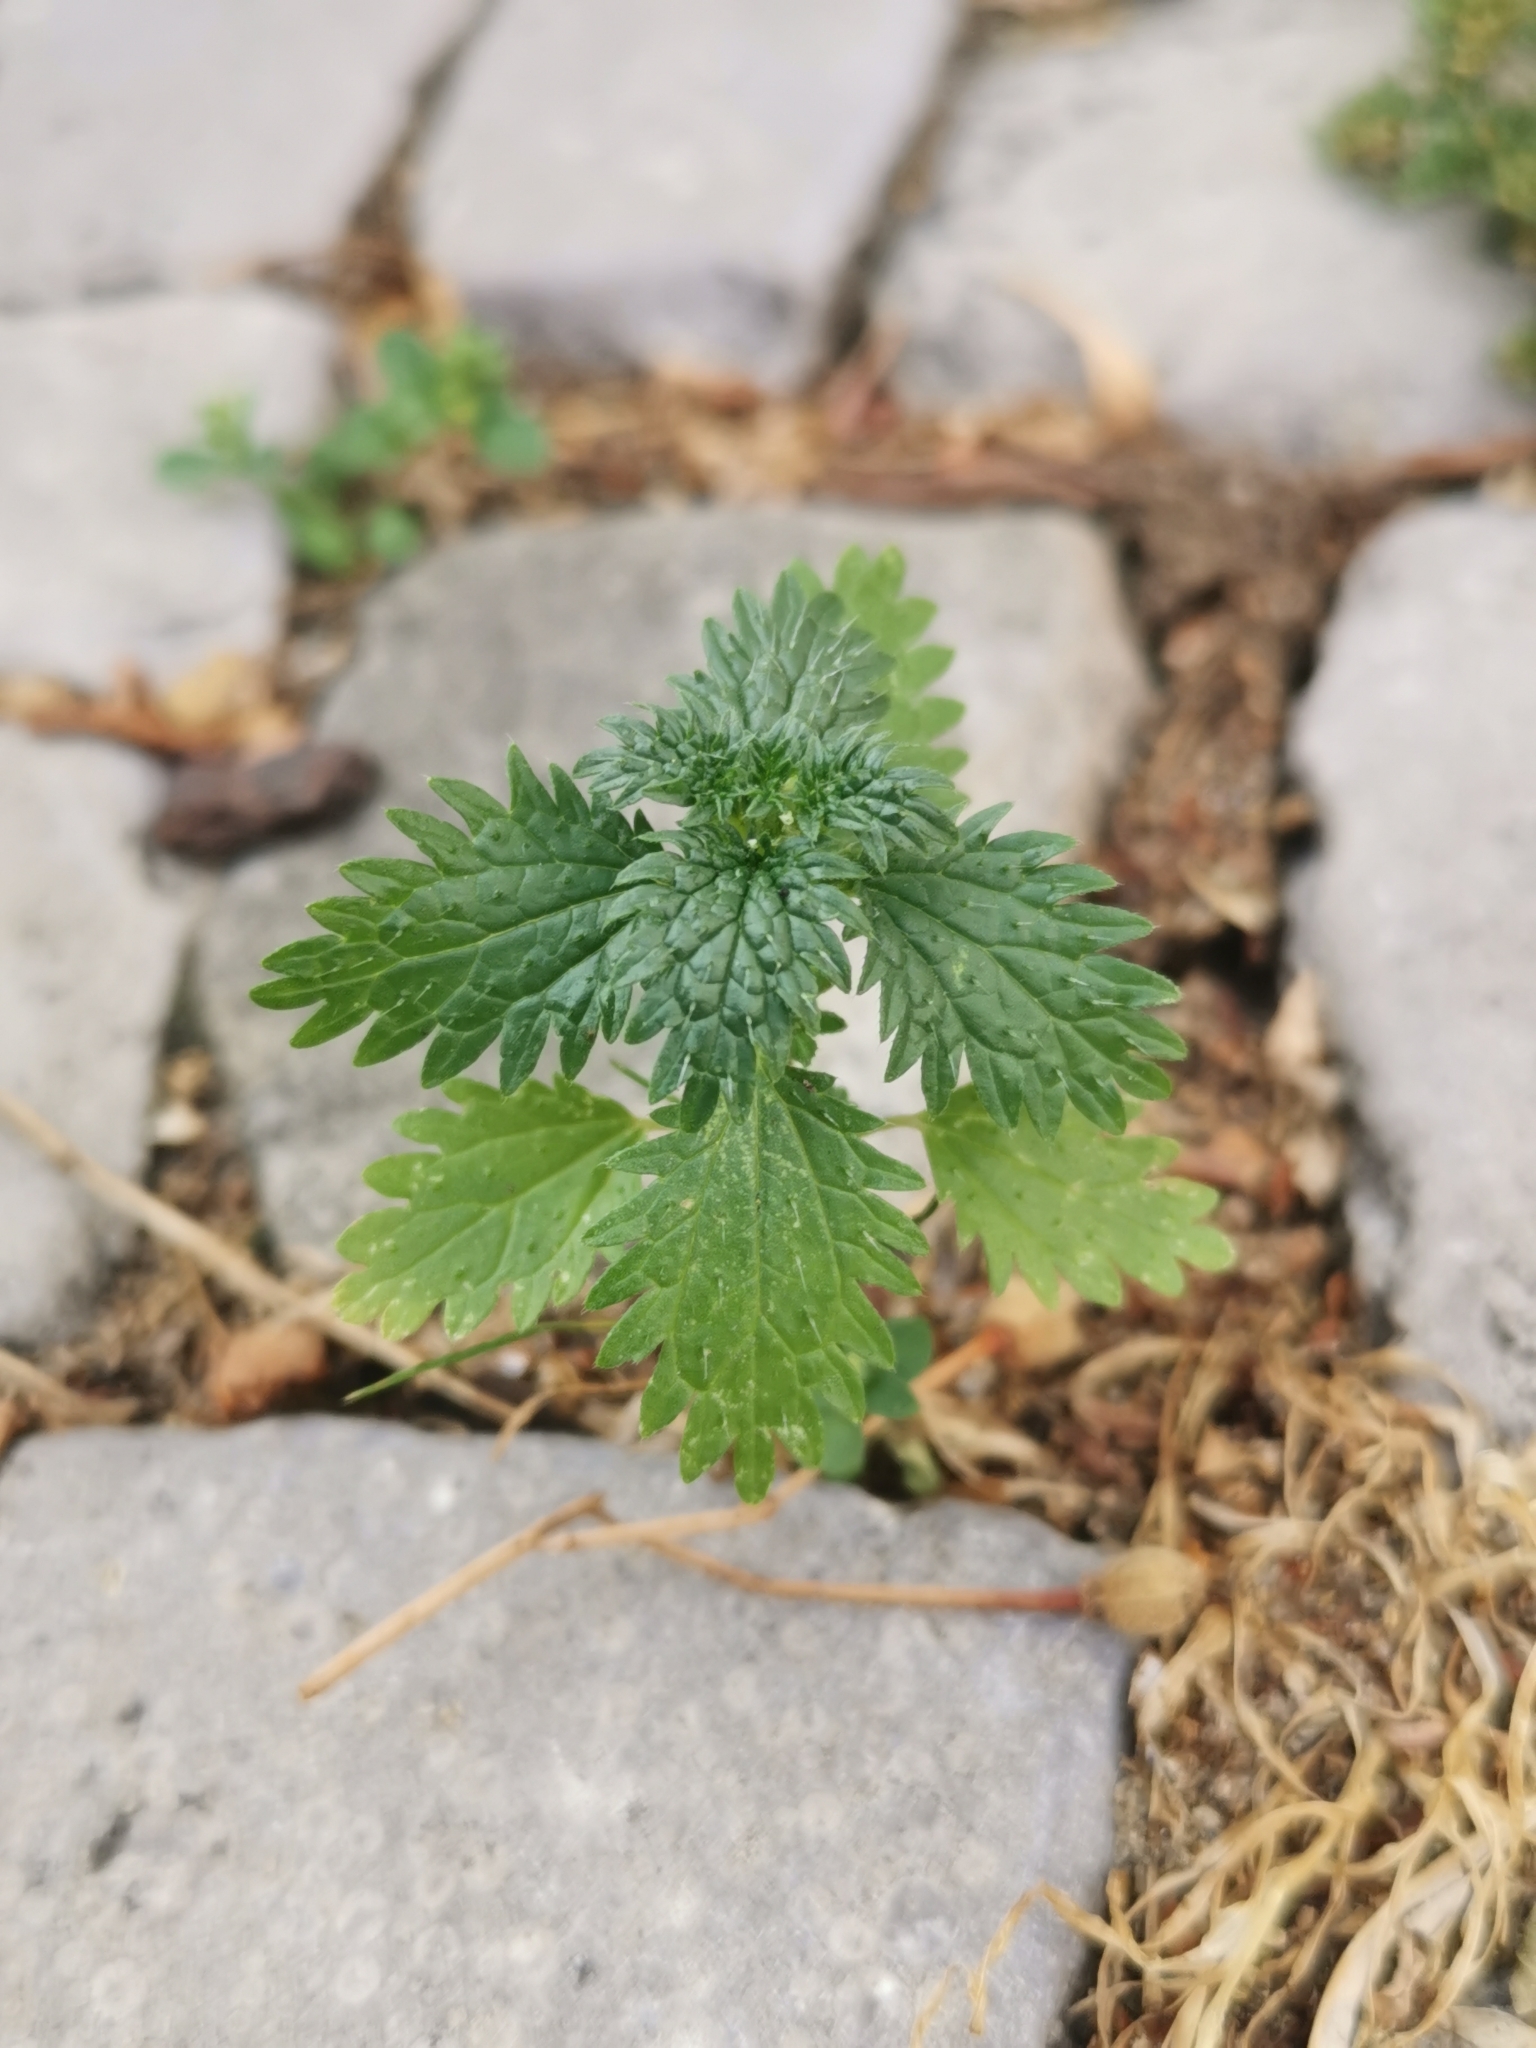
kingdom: Plantae
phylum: Tracheophyta
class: Magnoliopsida
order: Rosales
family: Urticaceae
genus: Urtica
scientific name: Urtica urens
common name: Dwarf nettle
